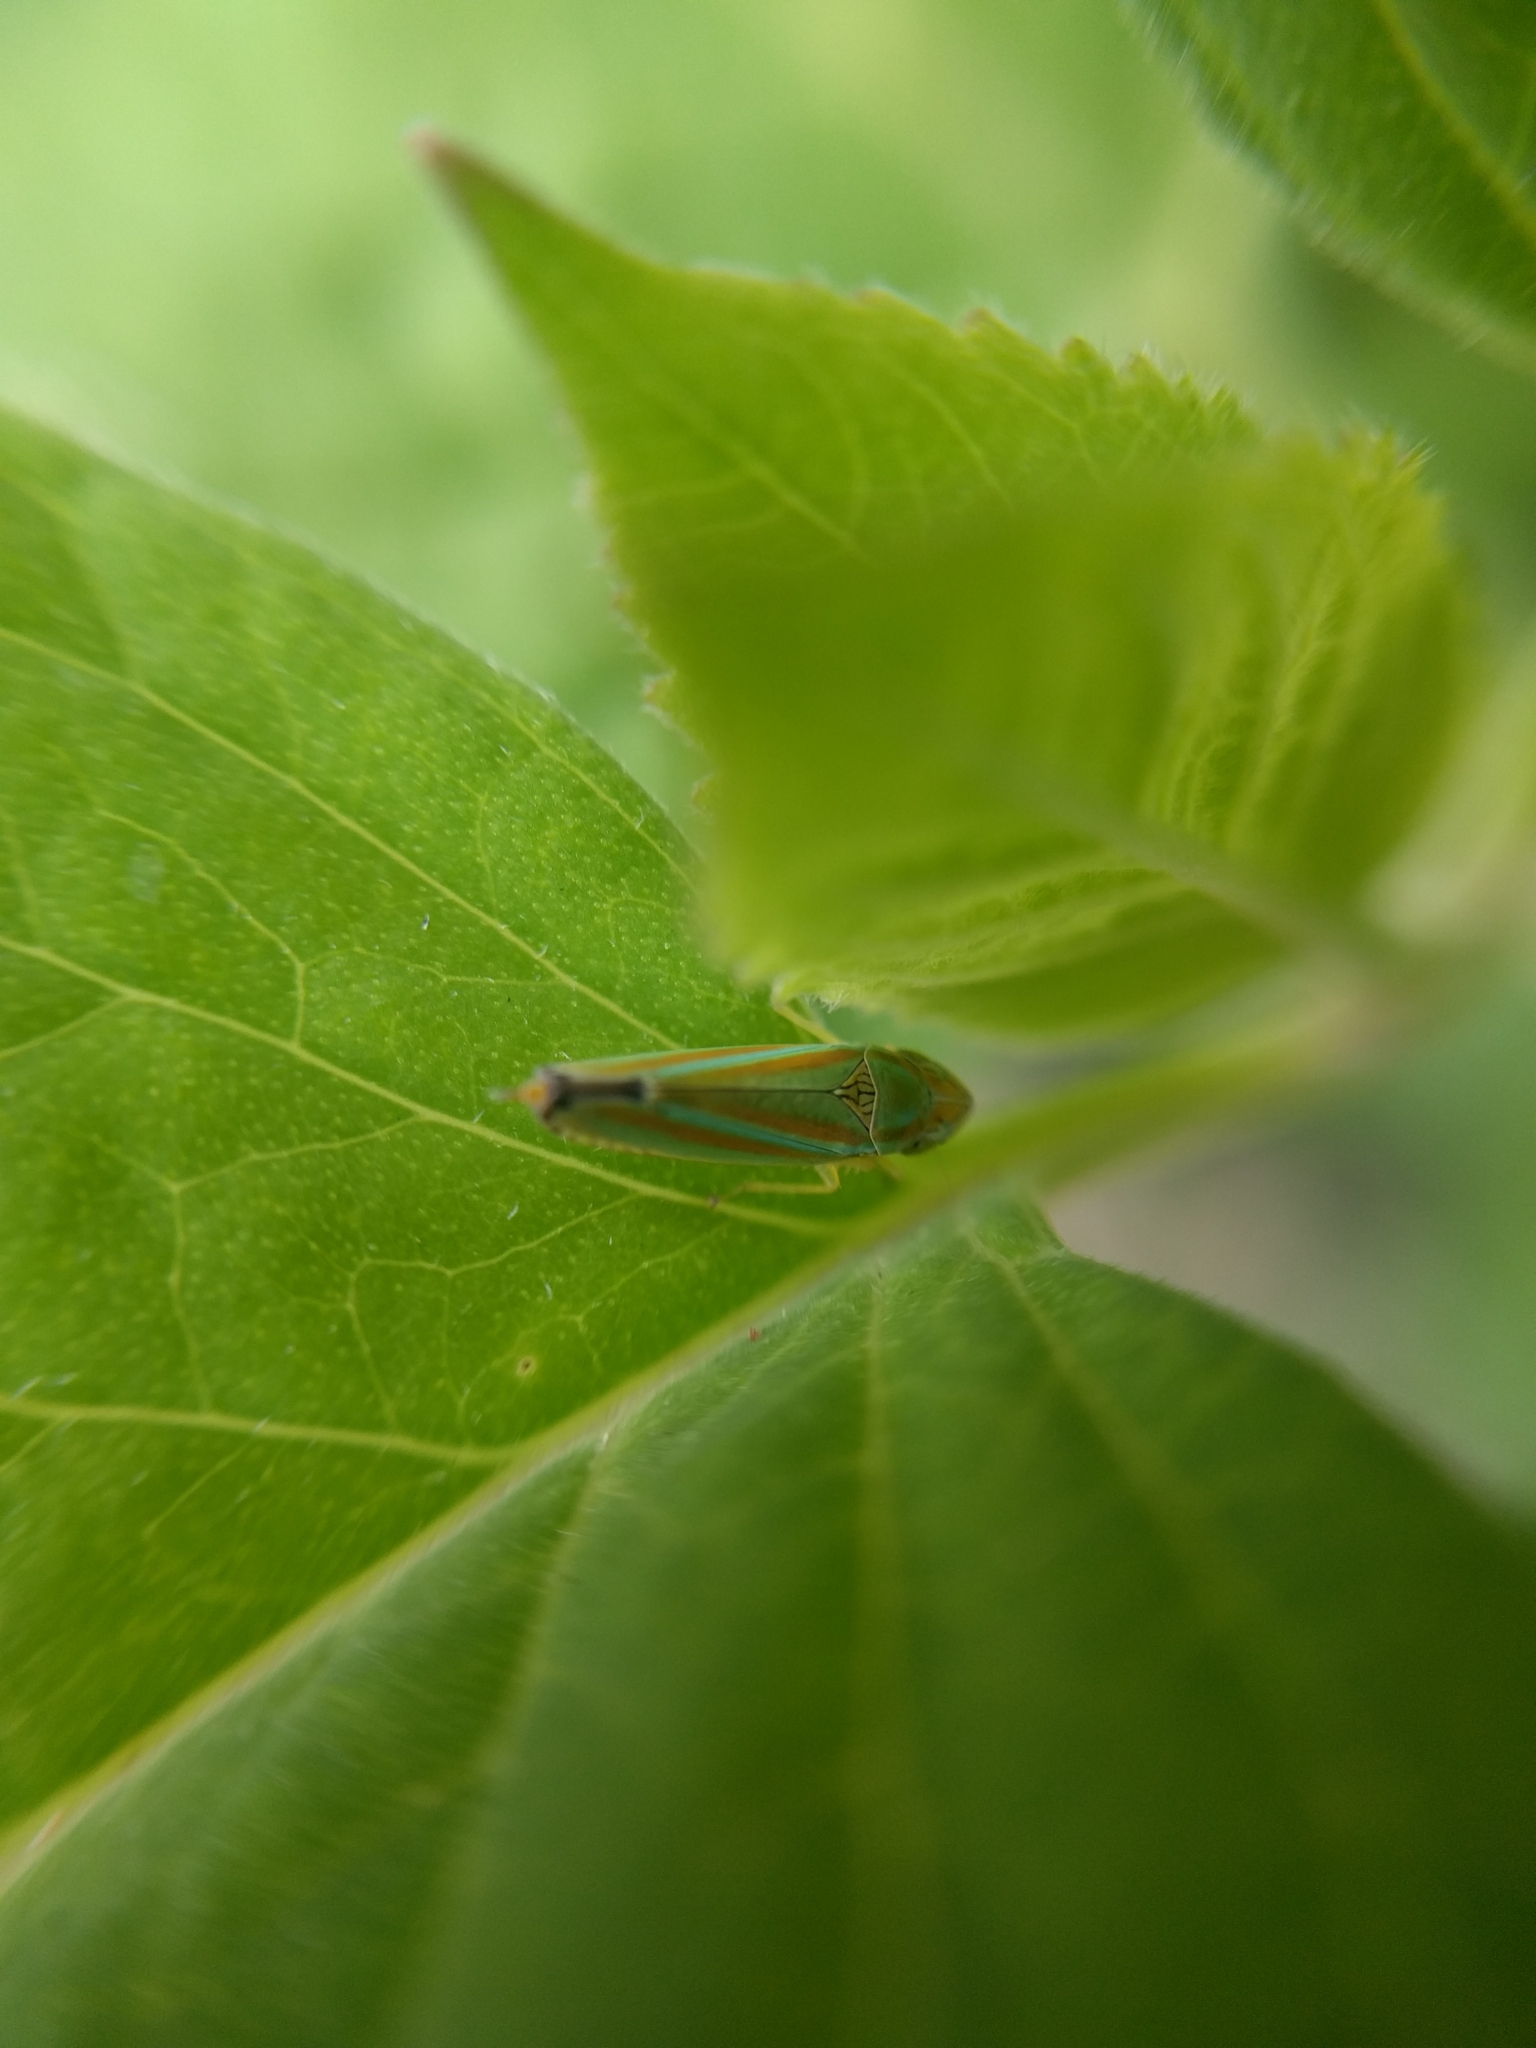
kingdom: Animalia
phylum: Arthropoda
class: Insecta
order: Hemiptera
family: Cicadellidae
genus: Graphocephala
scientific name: Graphocephala versuta
